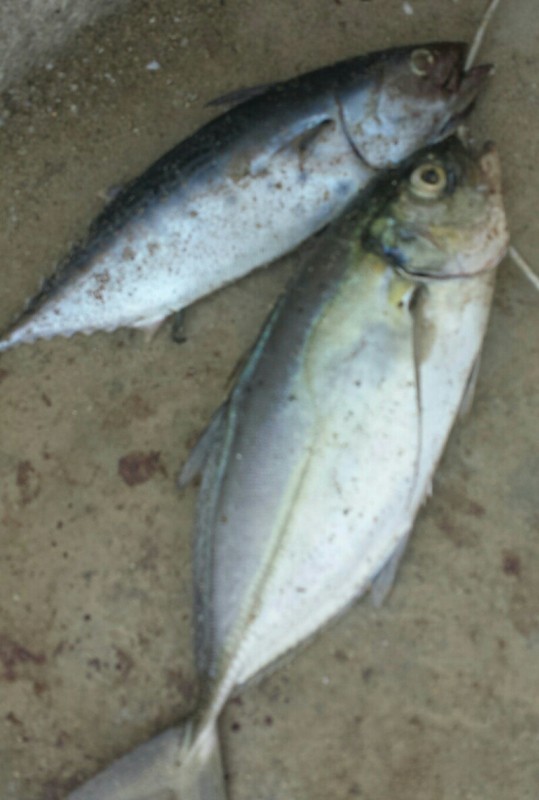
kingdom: Animalia
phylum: Chordata
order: Perciformes
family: Carangidae
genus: Caranx
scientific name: Caranx crysos
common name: Blue runner
